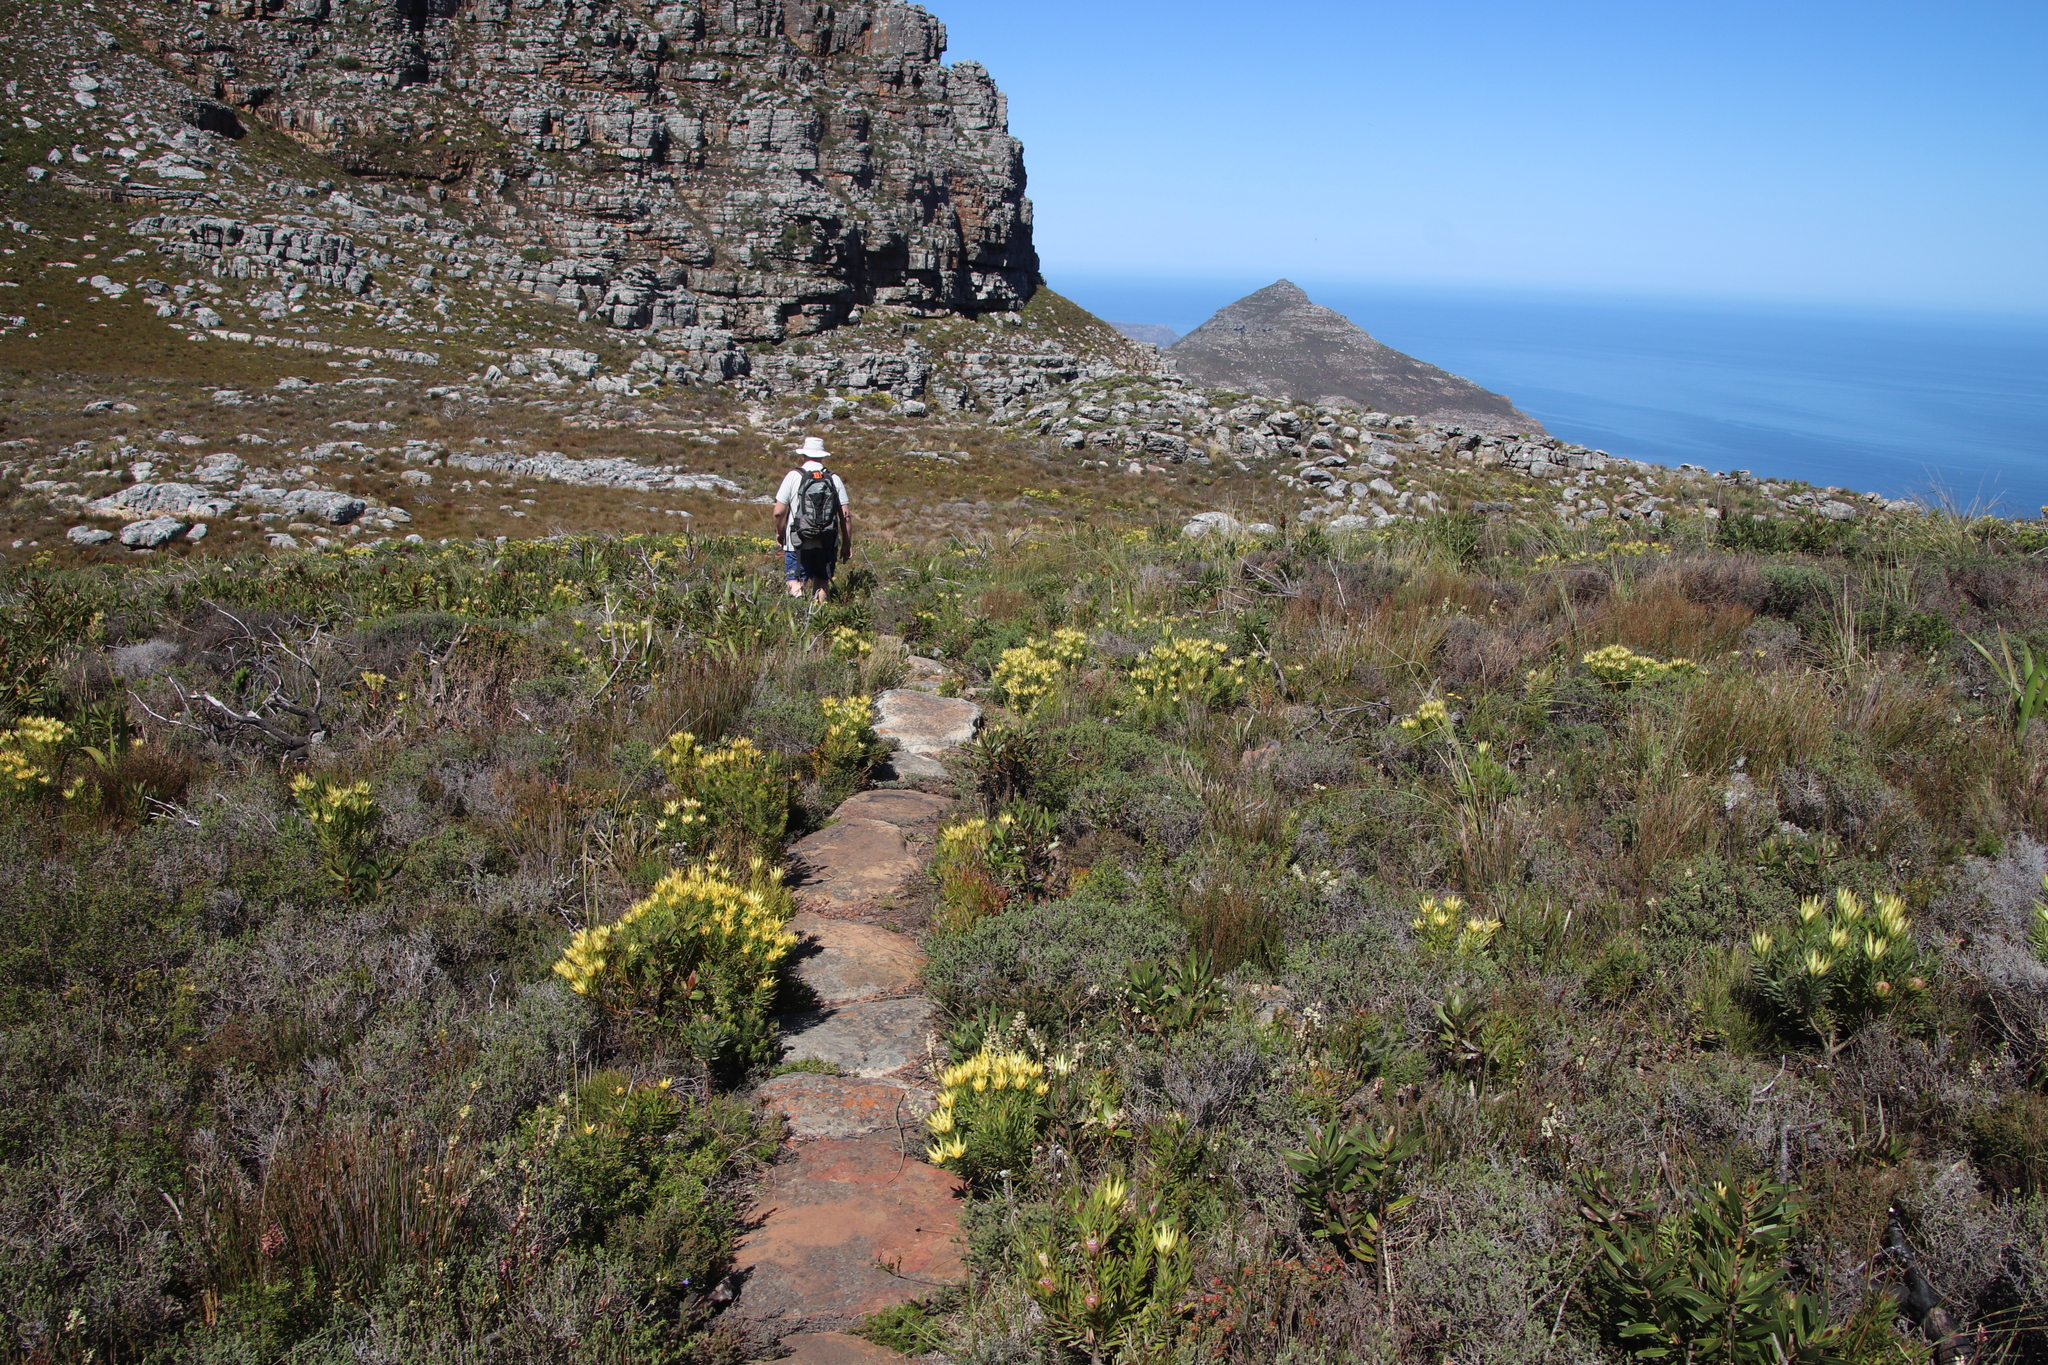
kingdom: Plantae
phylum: Tracheophyta
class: Magnoliopsida
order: Proteales
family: Proteaceae
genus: Leucadendron
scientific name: Leucadendron xanthoconus
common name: Sickle-leaf conebush
